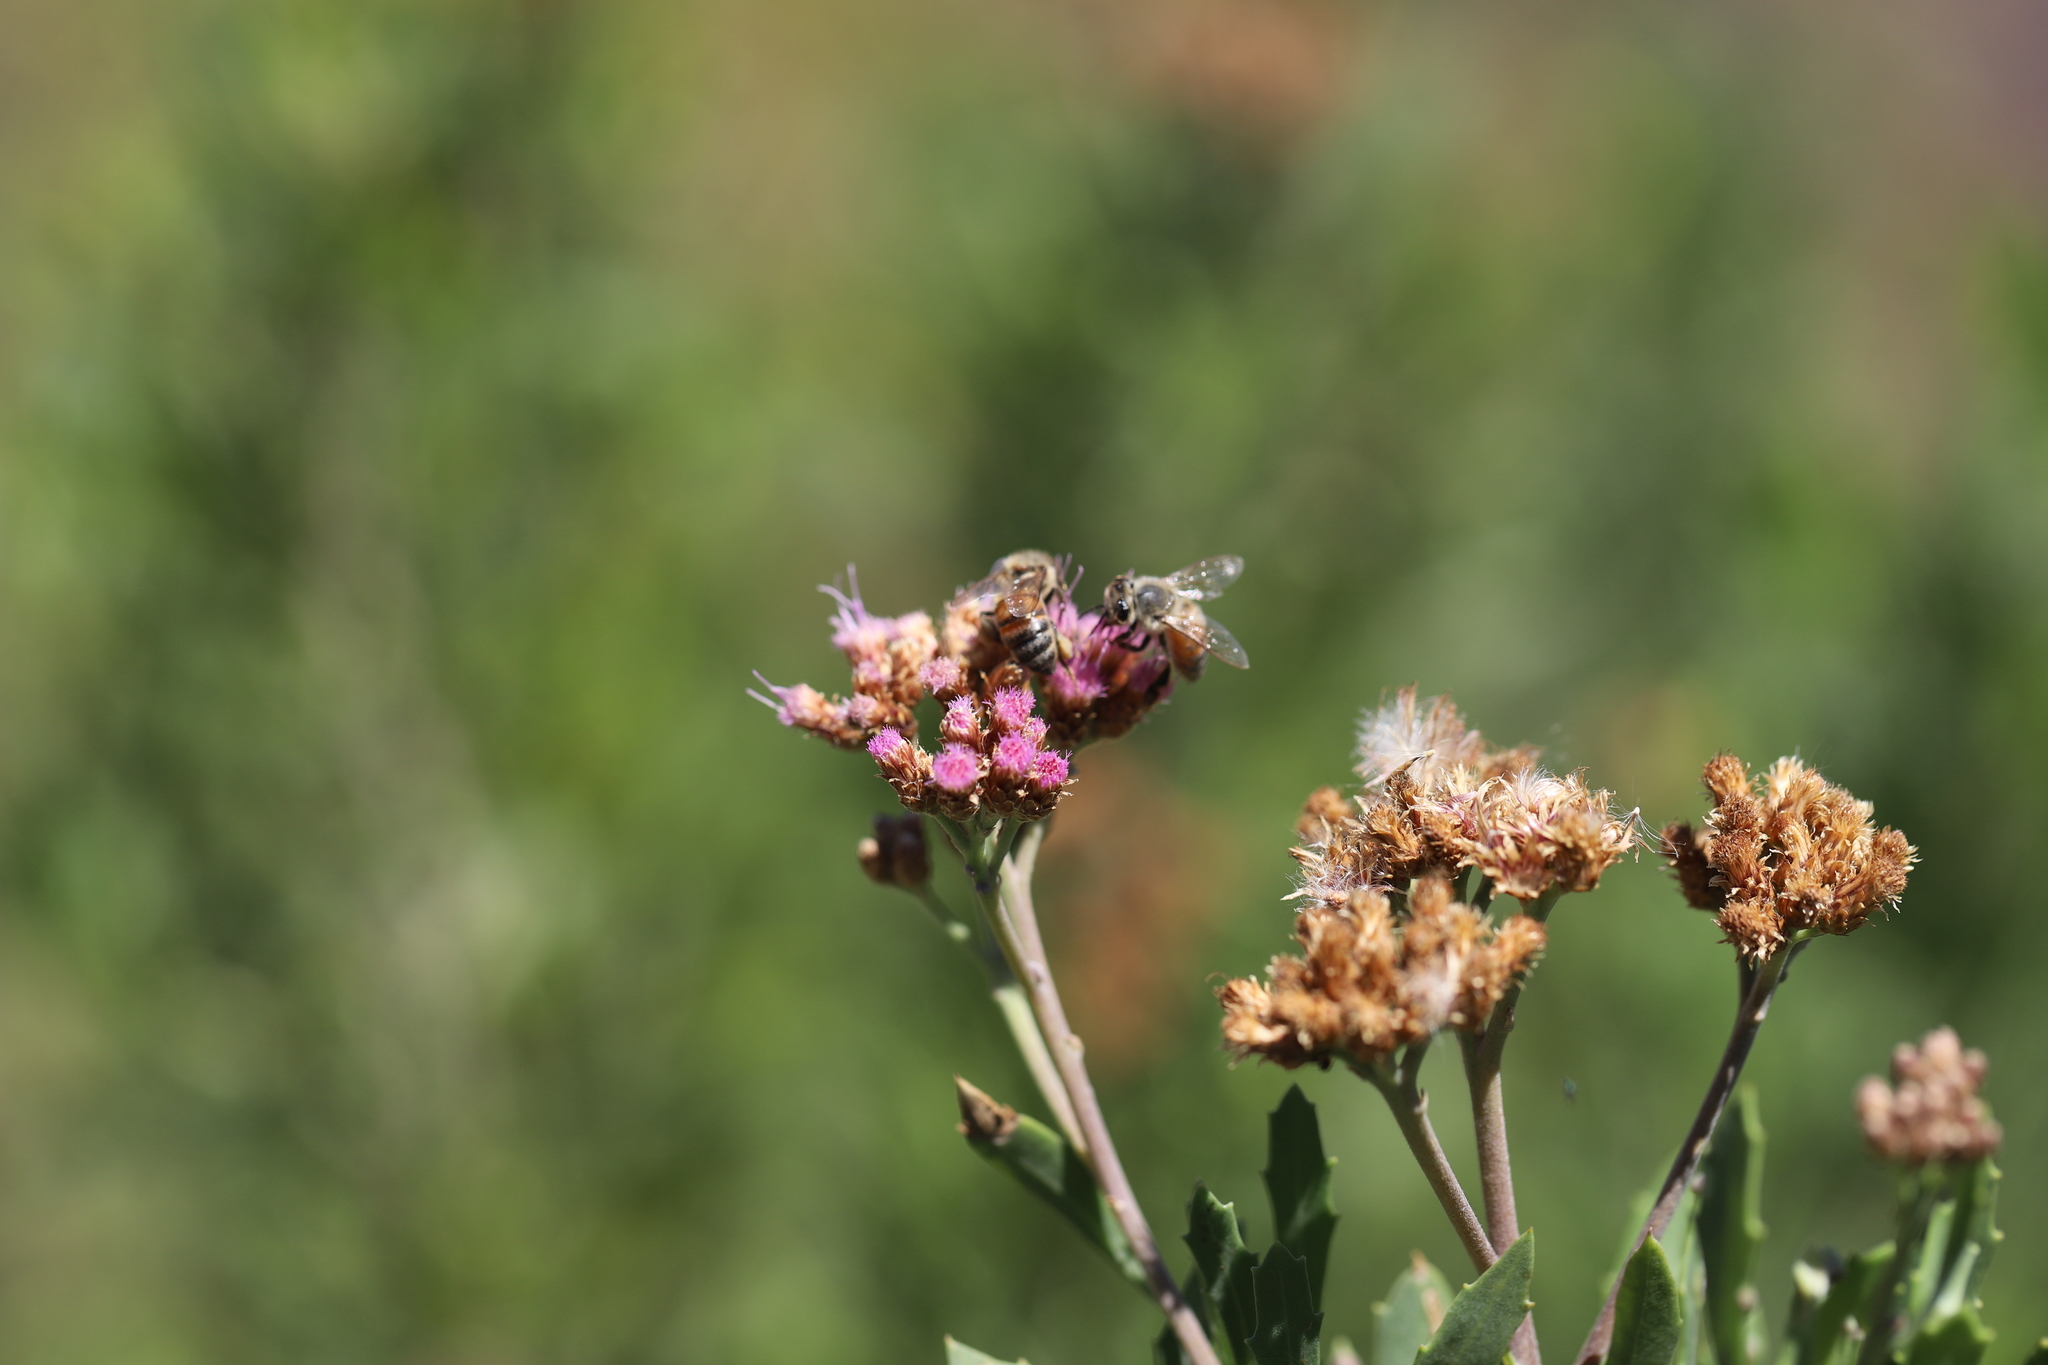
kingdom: Plantae
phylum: Tracheophyta
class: Magnoliopsida
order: Asterales
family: Asteraceae
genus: Tessaria
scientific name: Tessaria absinthioides
